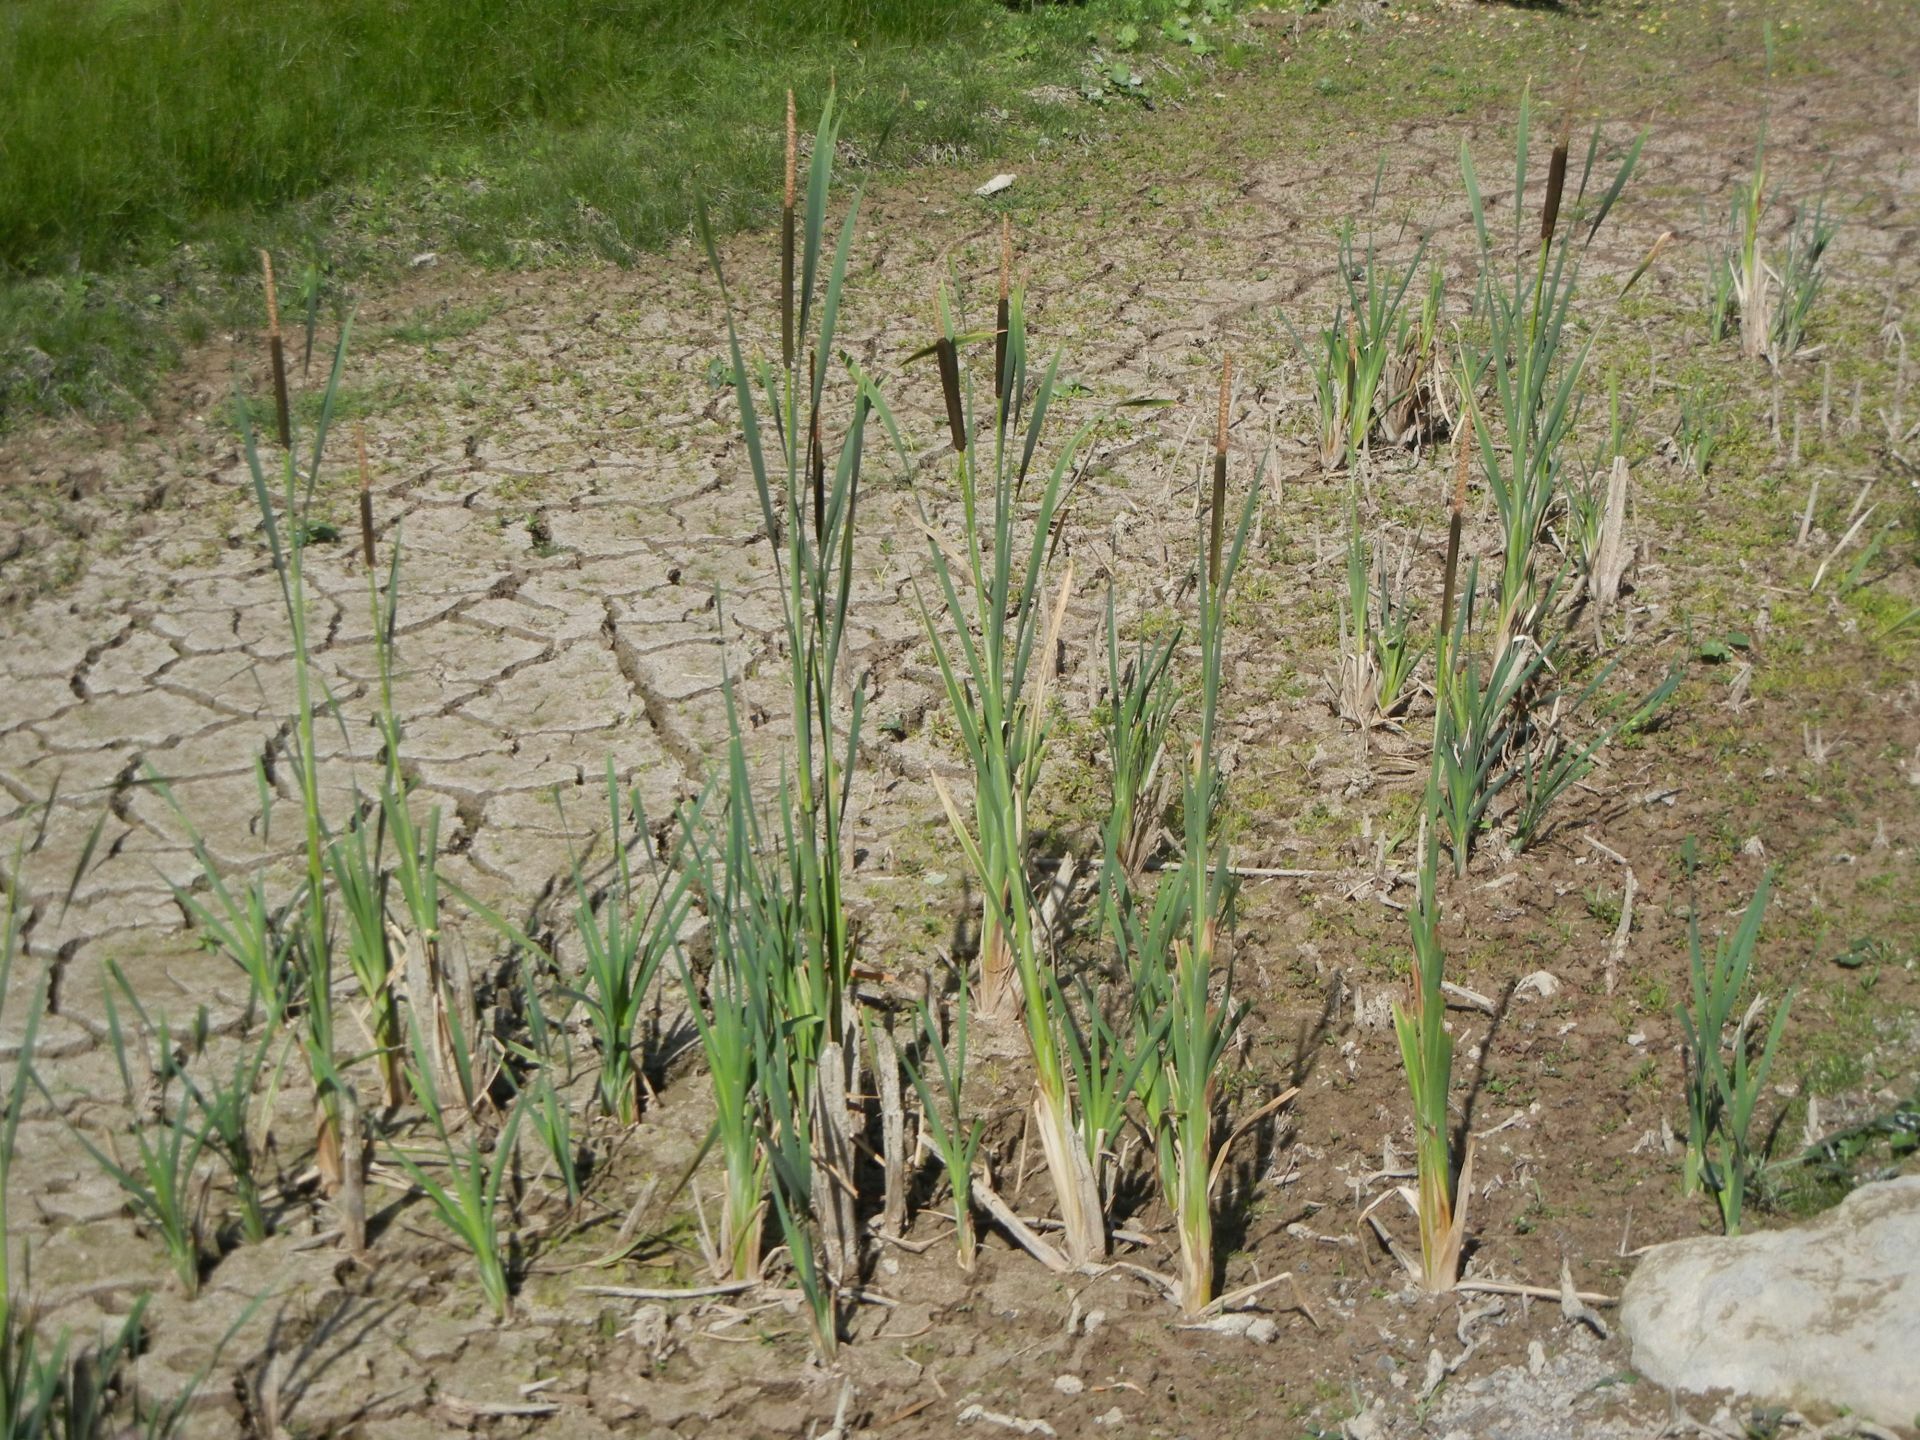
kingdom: Plantae
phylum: Tracheophyta
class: Liliopsida
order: Poales
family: Typhaceae
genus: Typha
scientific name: Typha latifolia
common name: Broadleaf cattail
